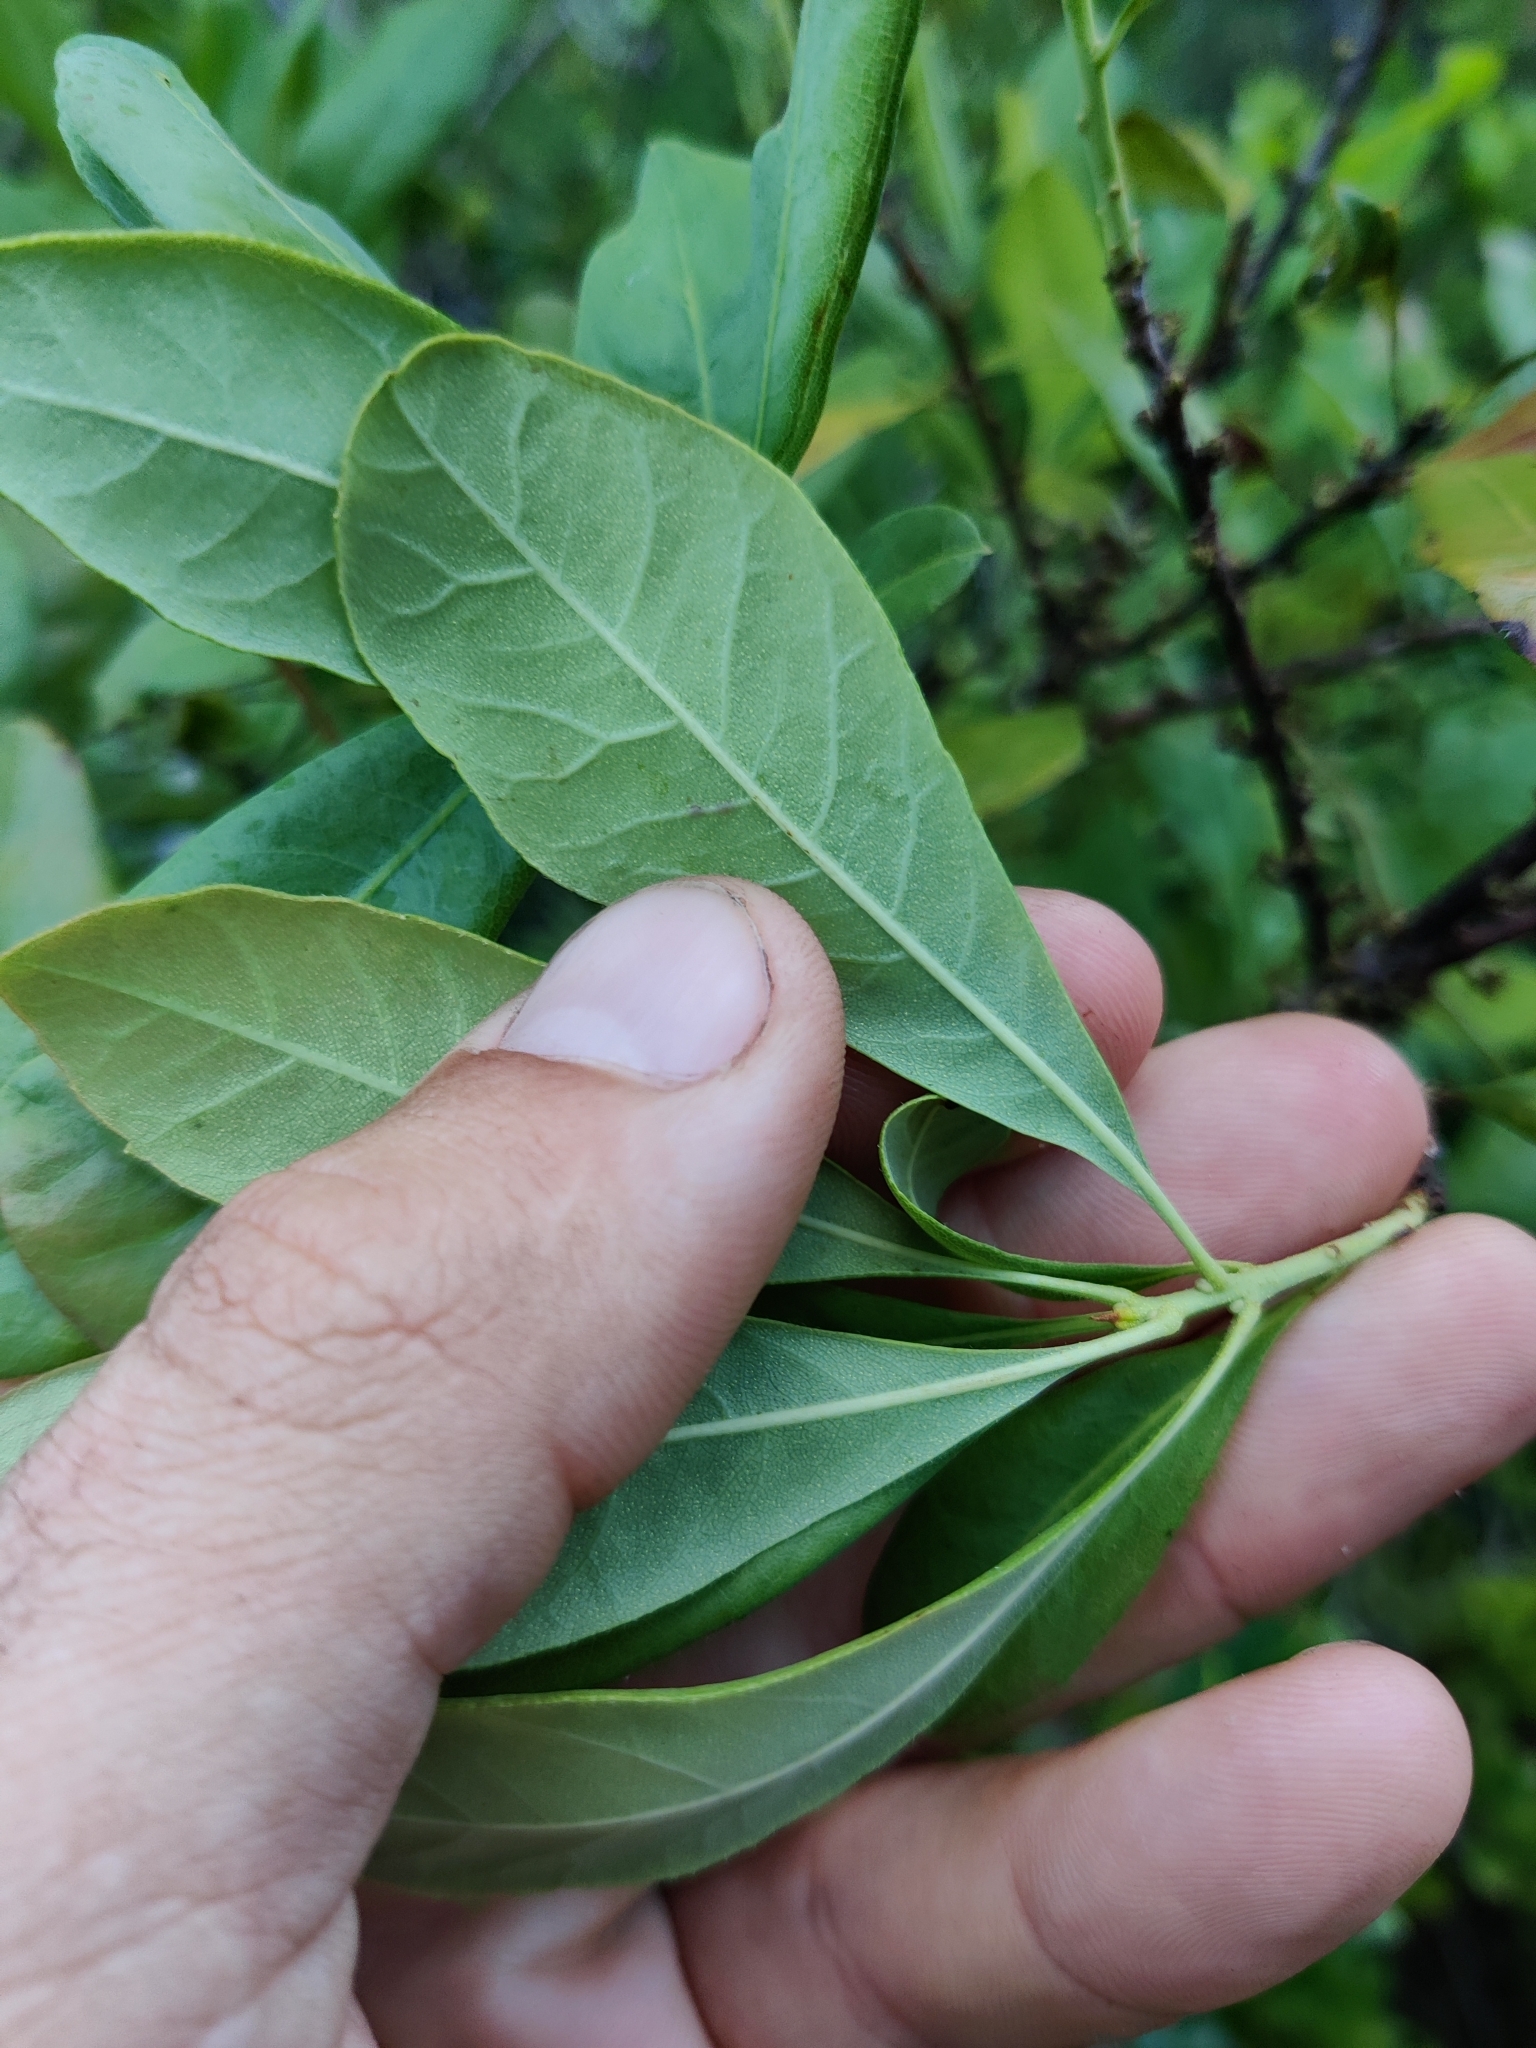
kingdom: Plantae
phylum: Tracheophyta
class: Magnoliopsida
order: Fagales
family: Myricaceae
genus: Morella
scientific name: Morella caroliniensis
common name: Evergreen bayberry
